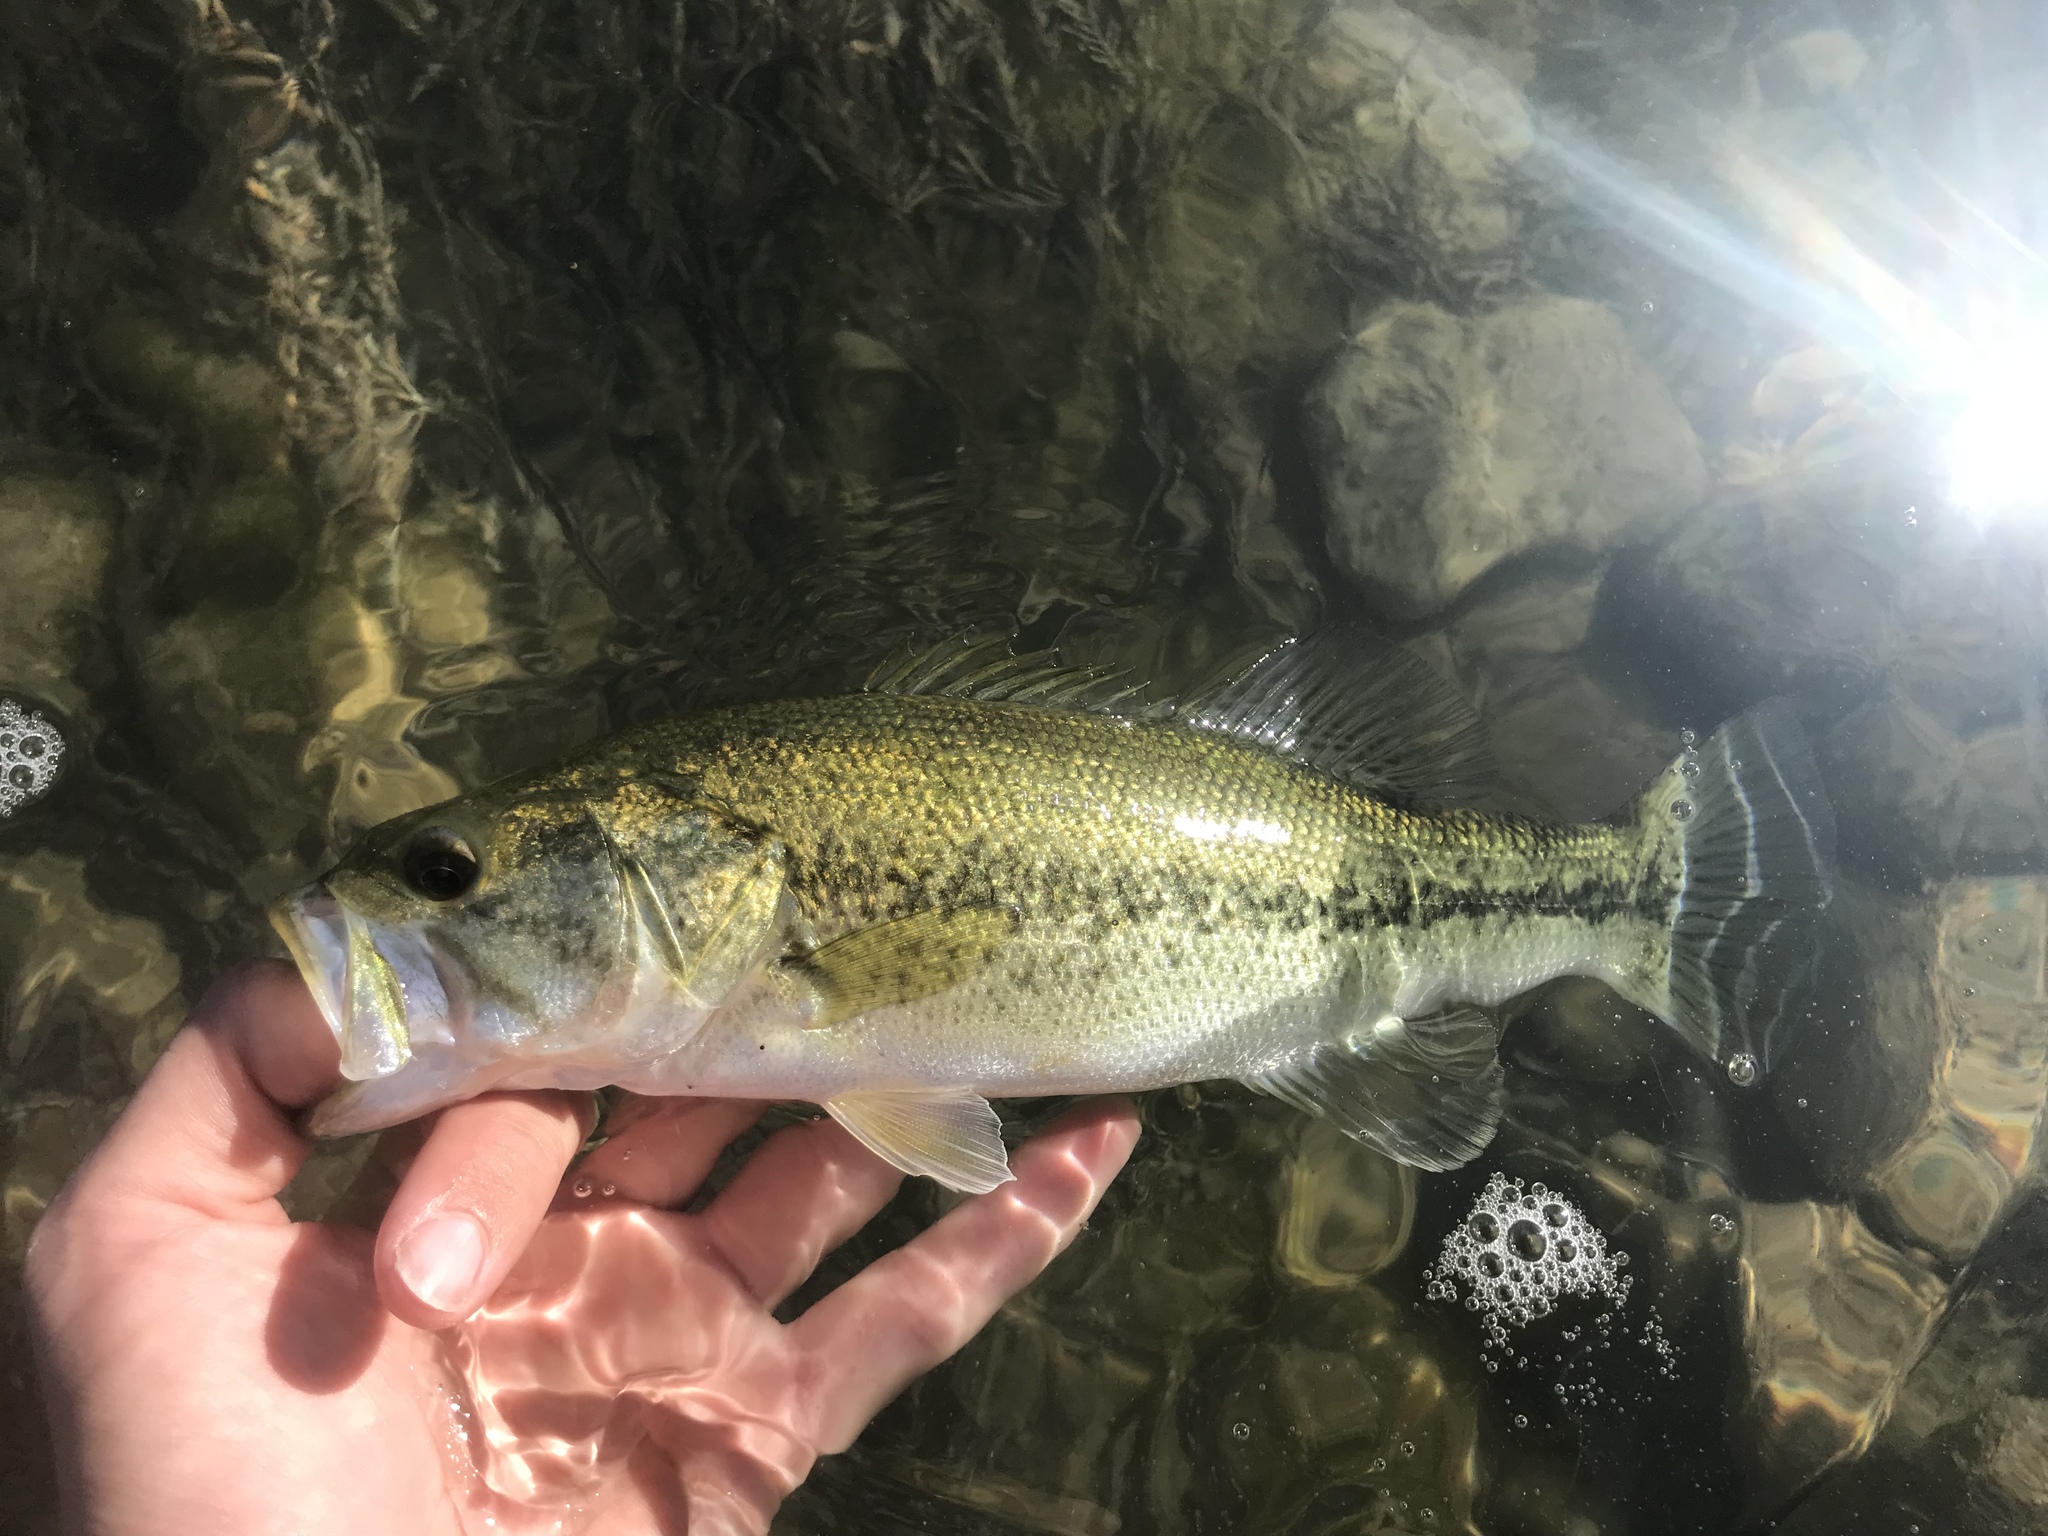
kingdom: Animalia
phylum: Chordata
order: Perciformes
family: Centrarchidae
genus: Micropterus
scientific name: Micropterus
